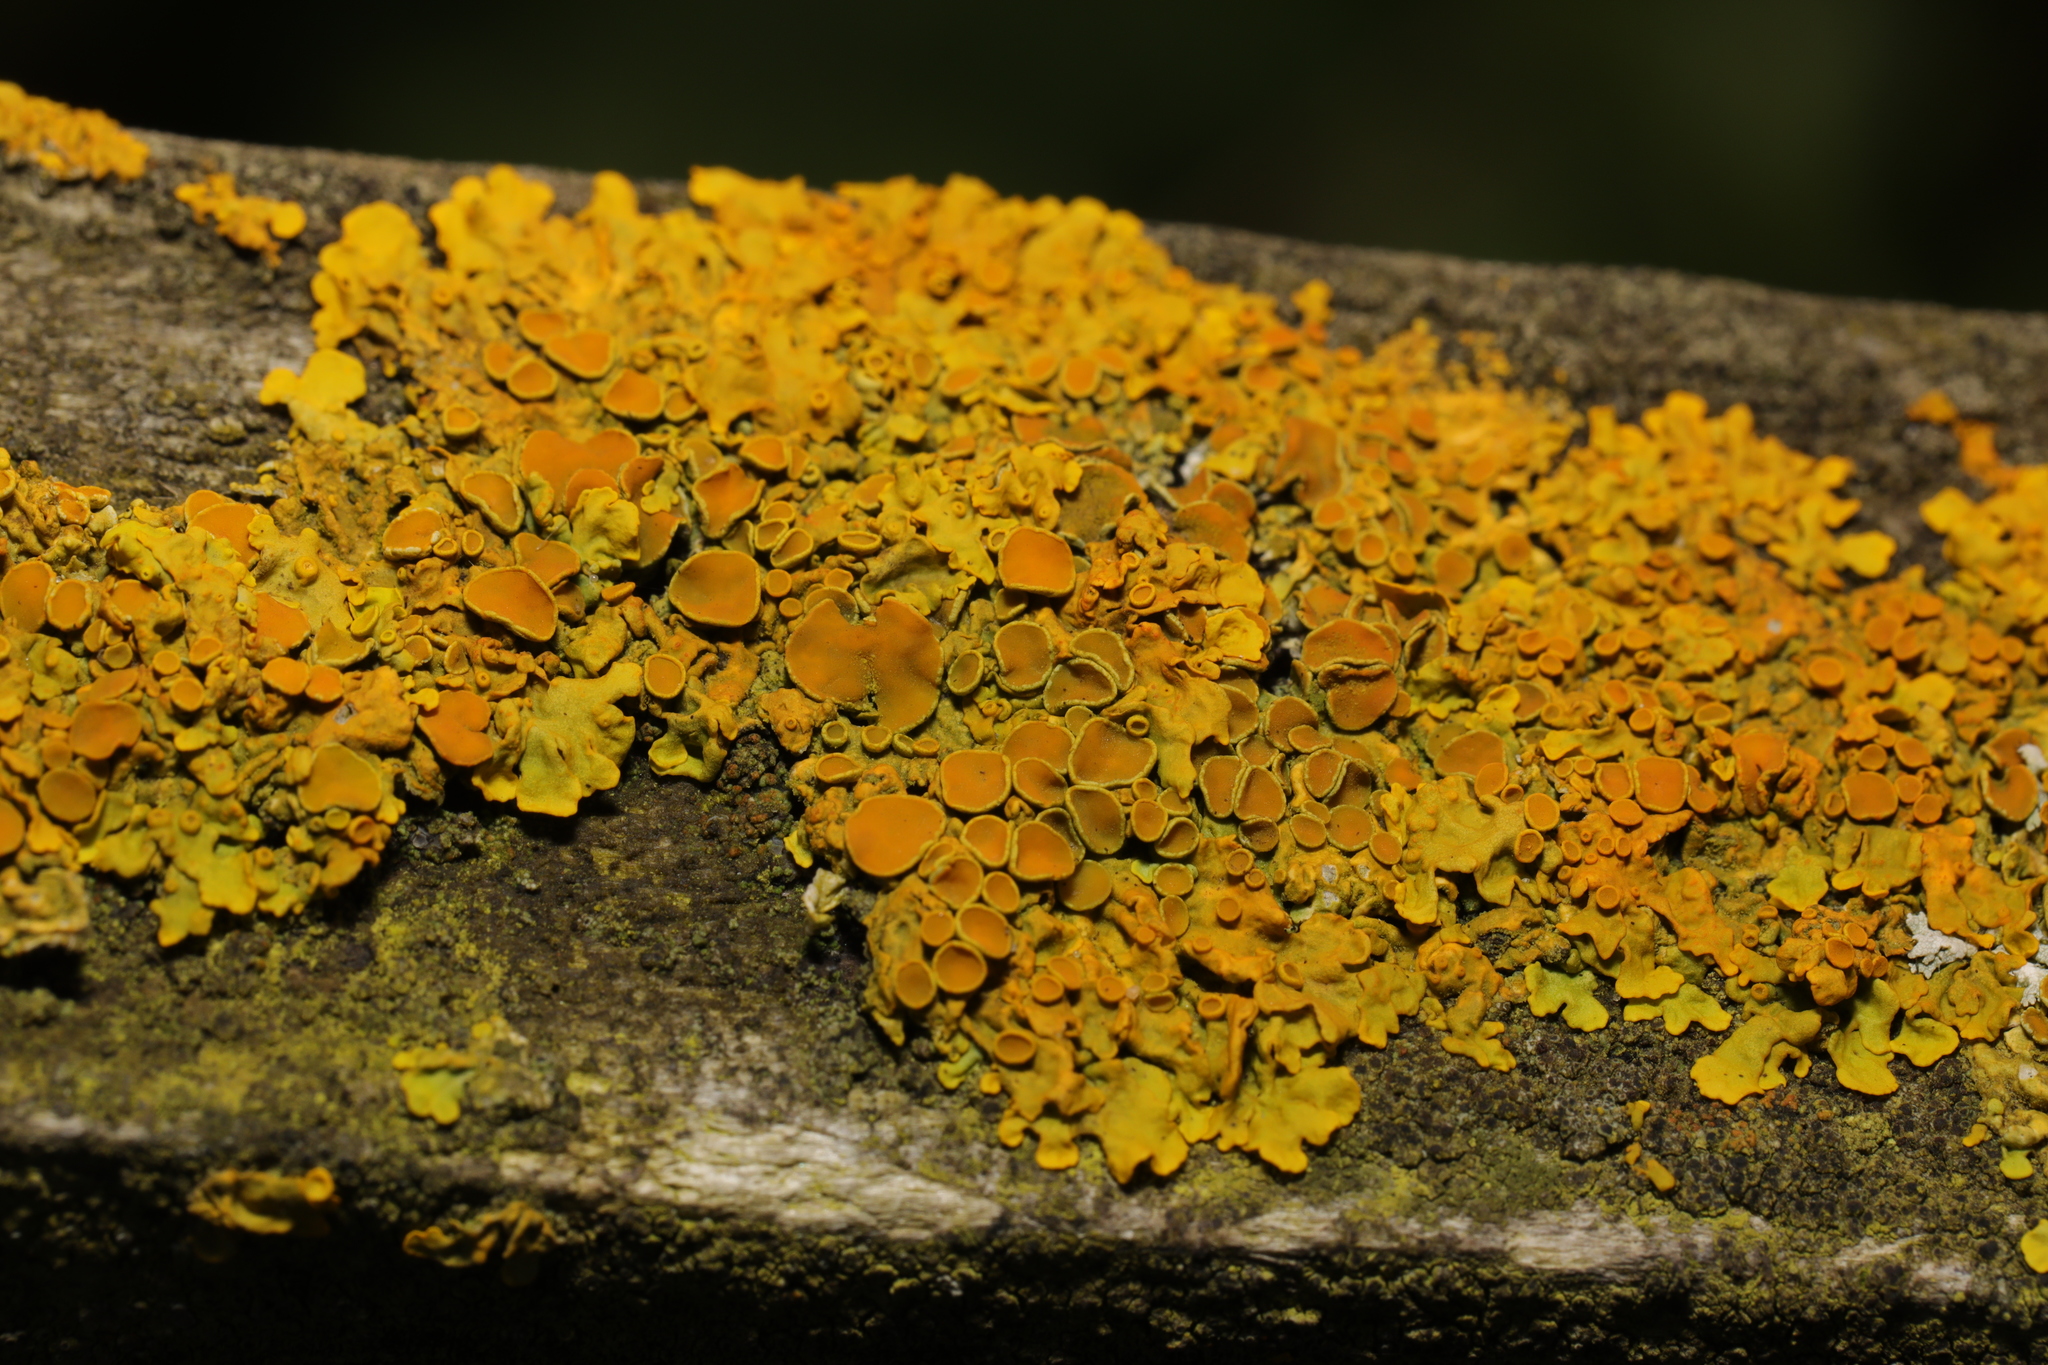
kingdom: Fungi
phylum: Ascomycota
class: Lecanoromycetes
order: Teloschistales
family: Teloschistaceae
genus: Xanthoria
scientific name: Xanthoria parietina
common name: Common orange lichen
